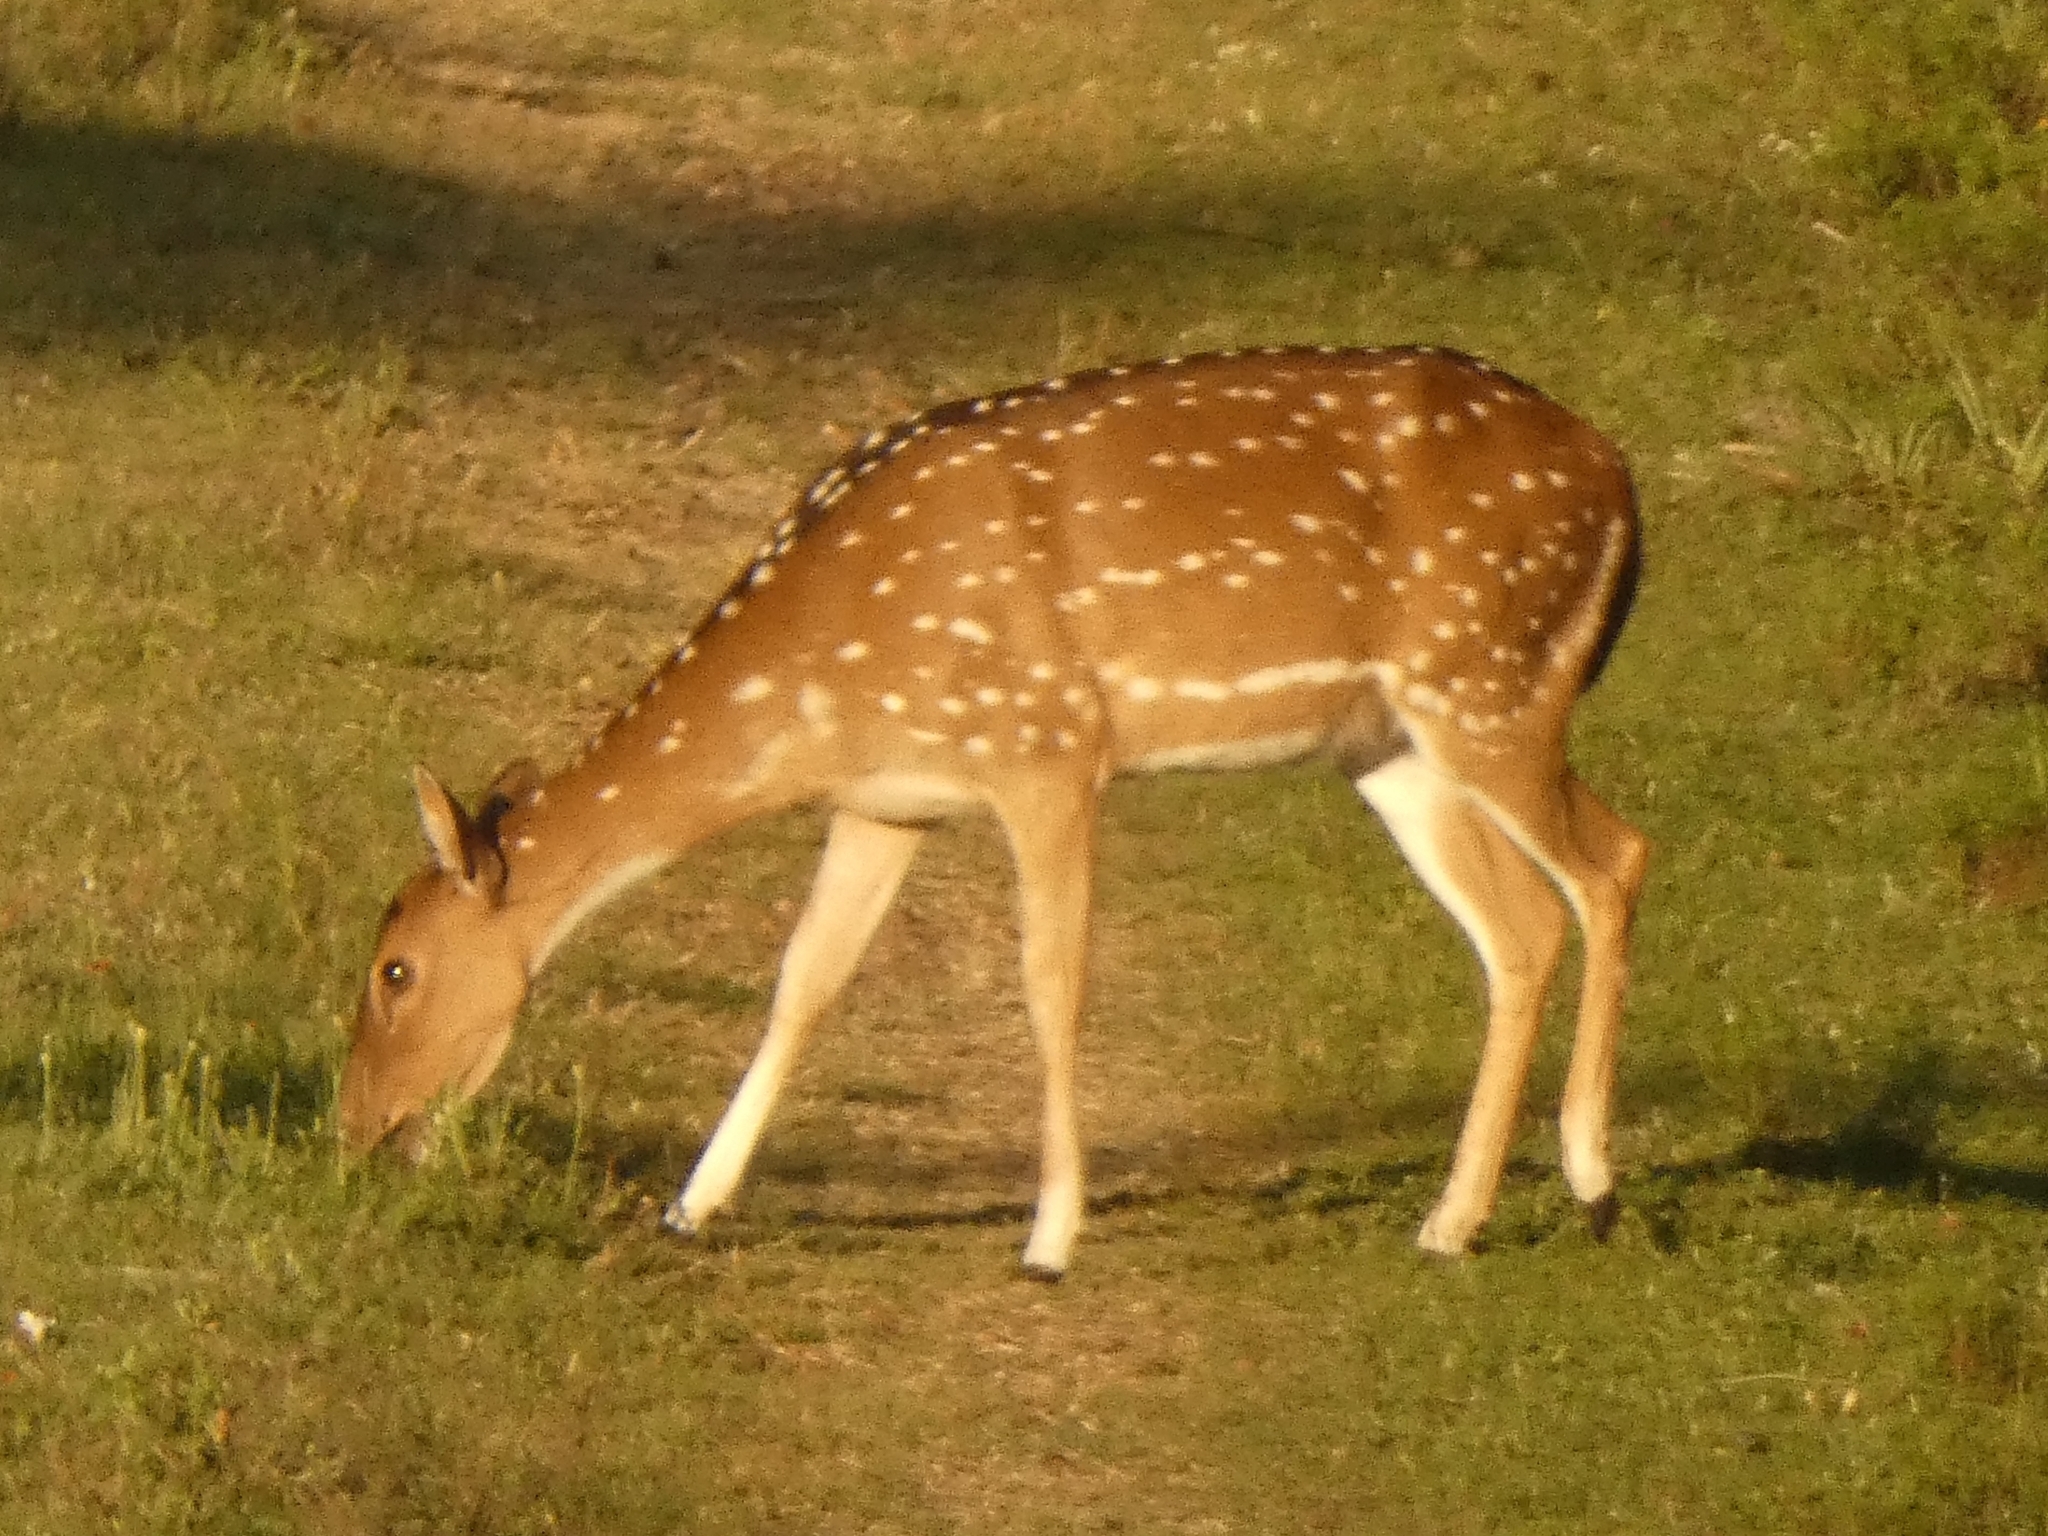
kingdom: Animalia
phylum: Chordata
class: Mammalia
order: Artiodactyla
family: Cervidae
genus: Axis
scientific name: Axis axis
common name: Chital
